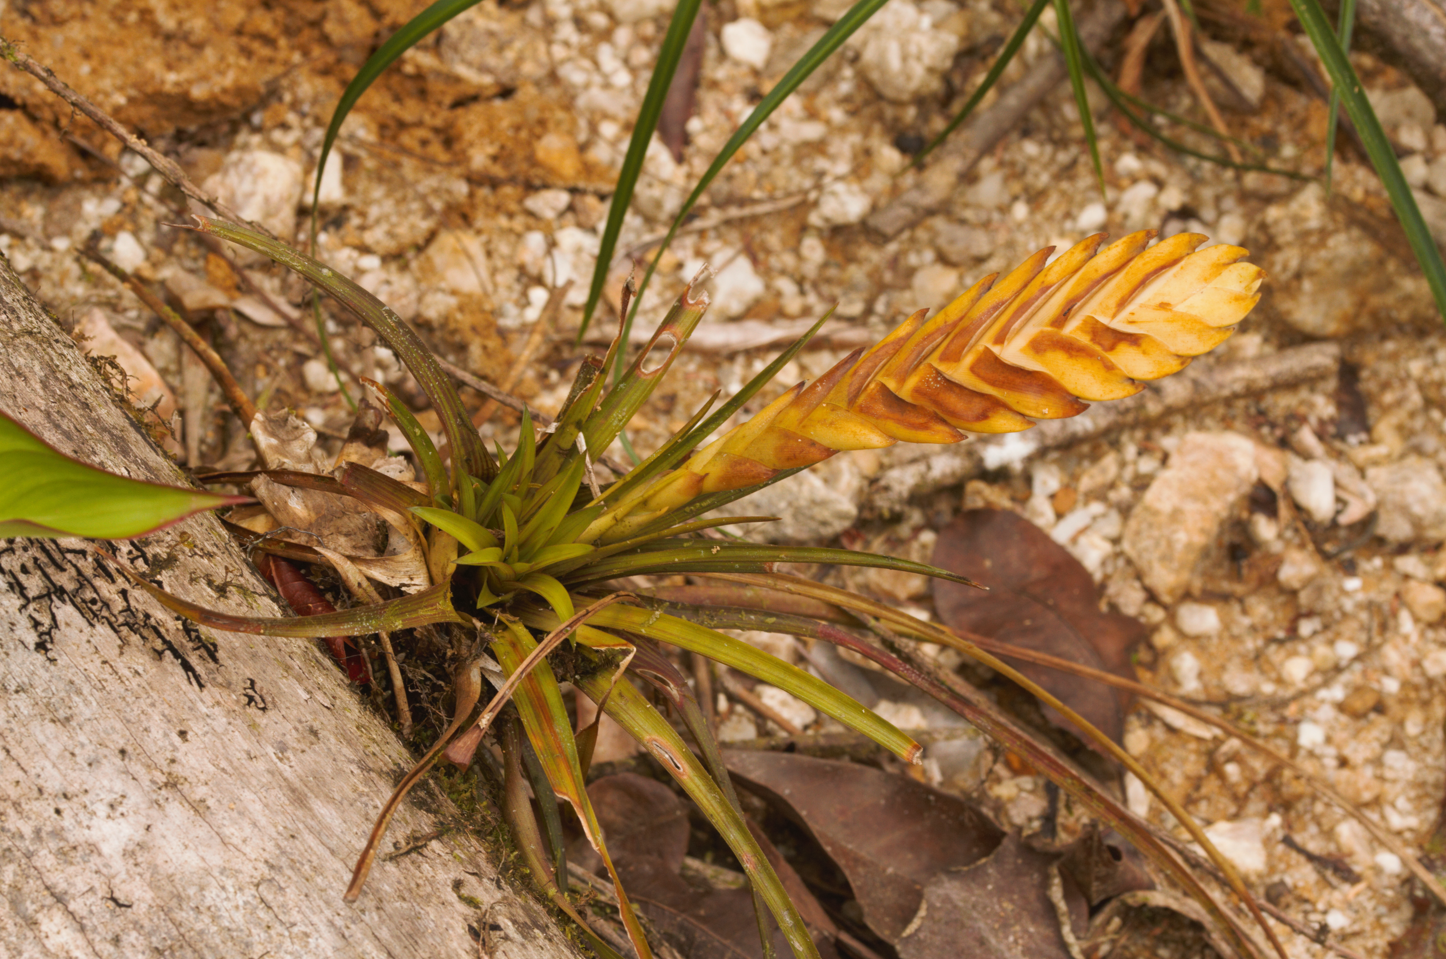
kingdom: Plantae
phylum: Tracheophyta
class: Liliopsida
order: Poales
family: Bromeliaceae
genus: Wallisia
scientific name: Wallisia anceps
